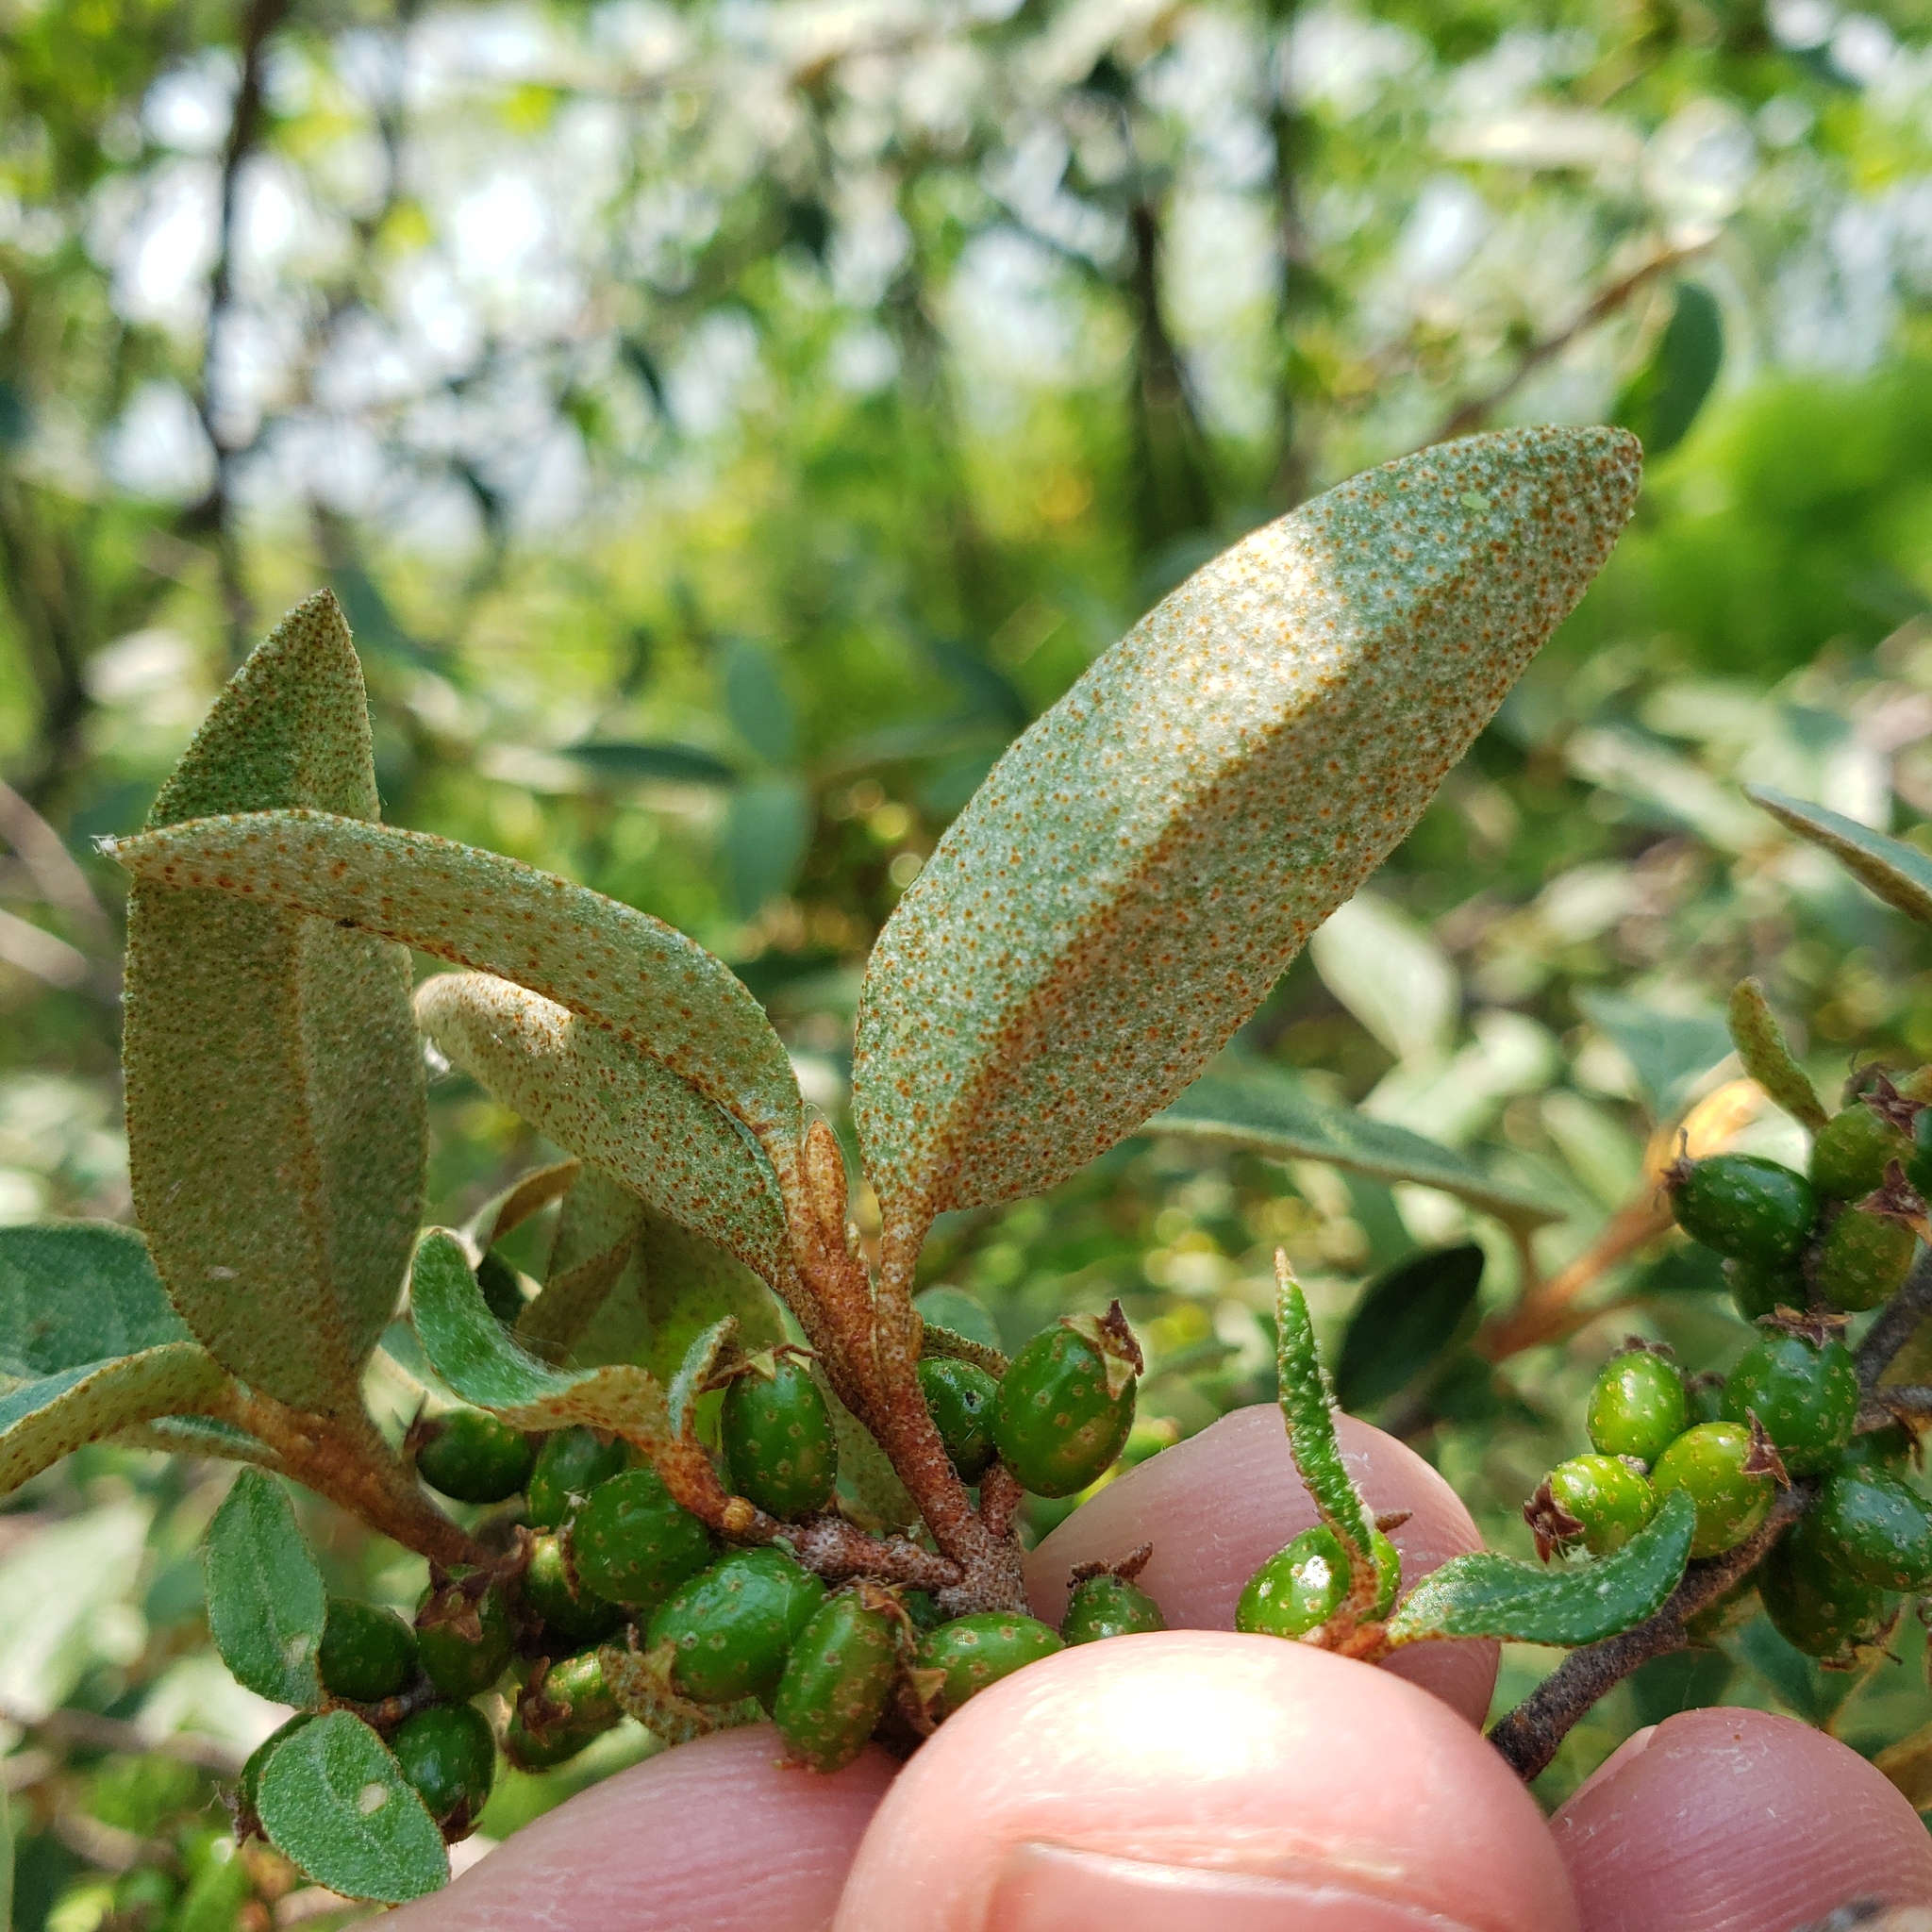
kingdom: Plantae
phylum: Tracheophyta
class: Magnoliopsida
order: Rosales
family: Elaeagnaceae
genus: Shepherdia
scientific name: Shepherdia canadensis
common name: Soapberry
